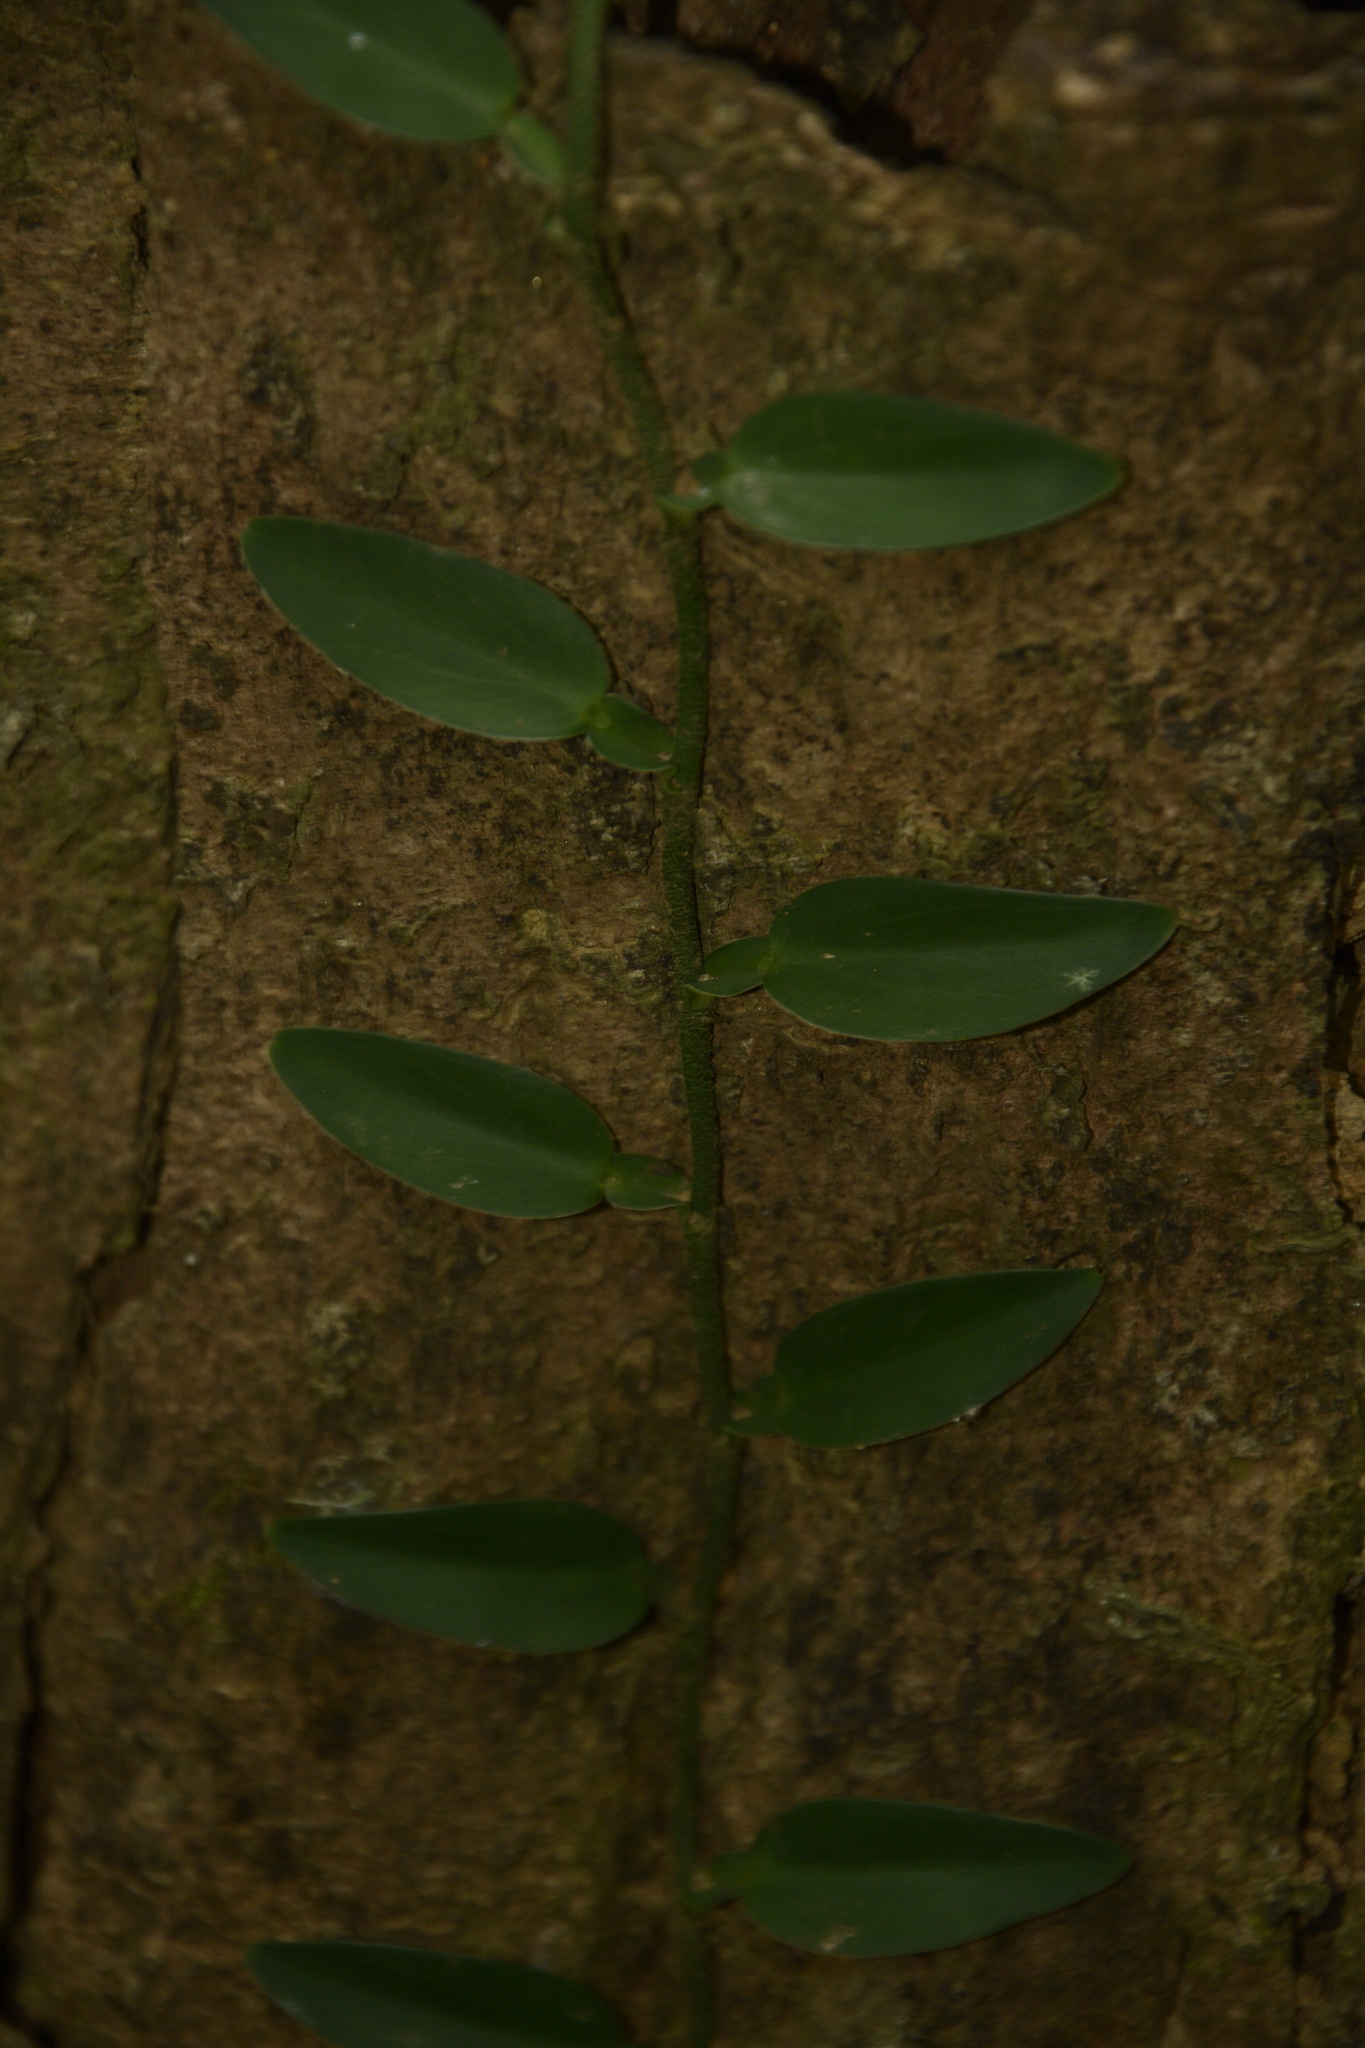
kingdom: Plantae
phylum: Tracheophyta
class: Liliopsida
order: Alismatales
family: Araceae
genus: Pothos
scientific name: Pothos scandens
